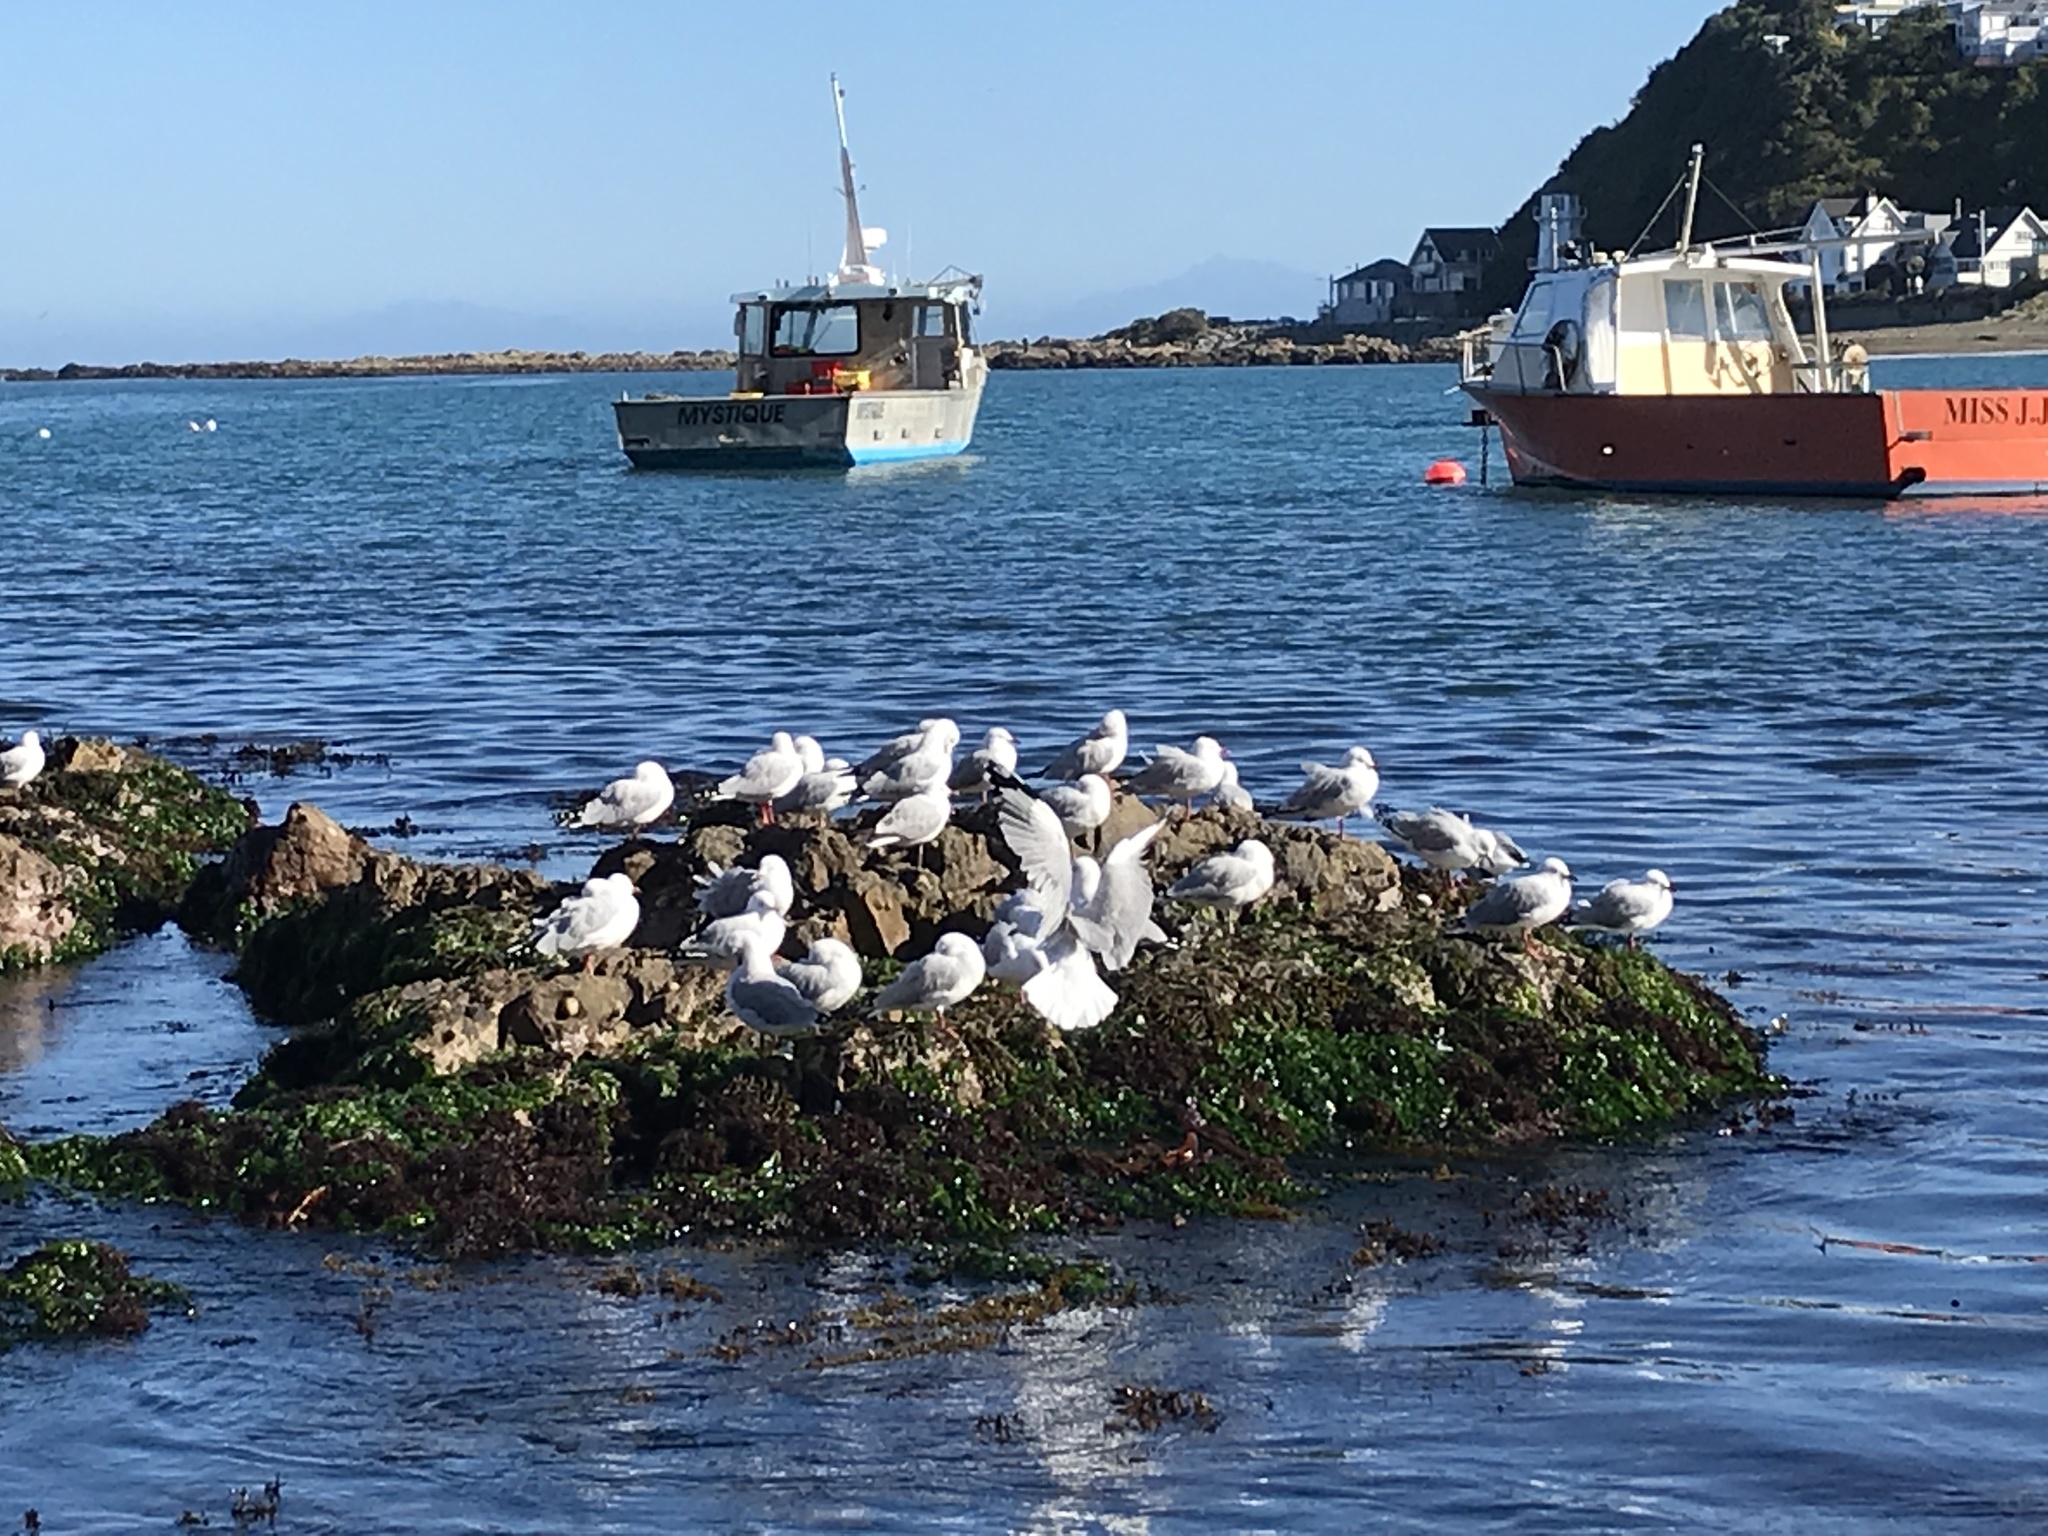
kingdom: Animalia
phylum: Chordata
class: Aves
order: Charadriiformes
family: Laridae
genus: Chroicocephalus
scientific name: Chroicocephalus novaehollandiae
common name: Silver gull
